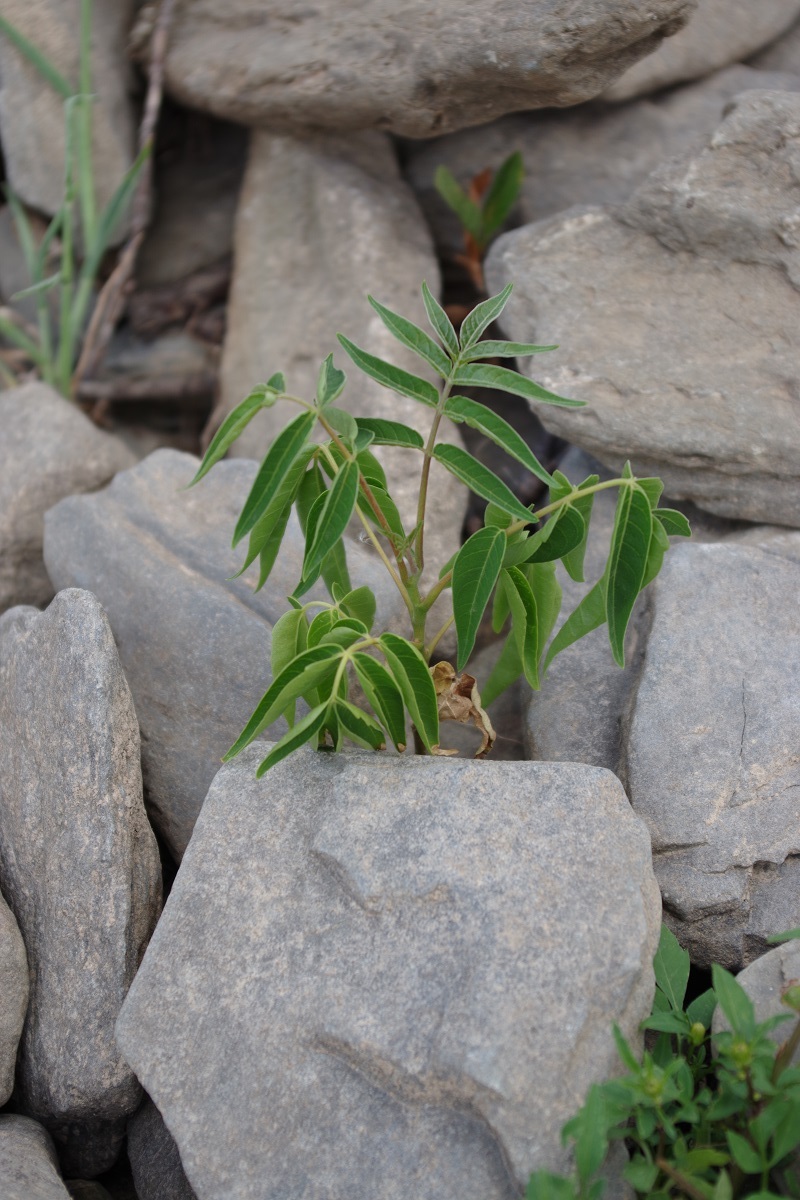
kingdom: Plantae
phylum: Tracheophyta
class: Magnoliopsida
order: Sapindales
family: Simaroubaceae
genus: Ailanthus
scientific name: Ailanthus altissima
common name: Tree-of-heaven
